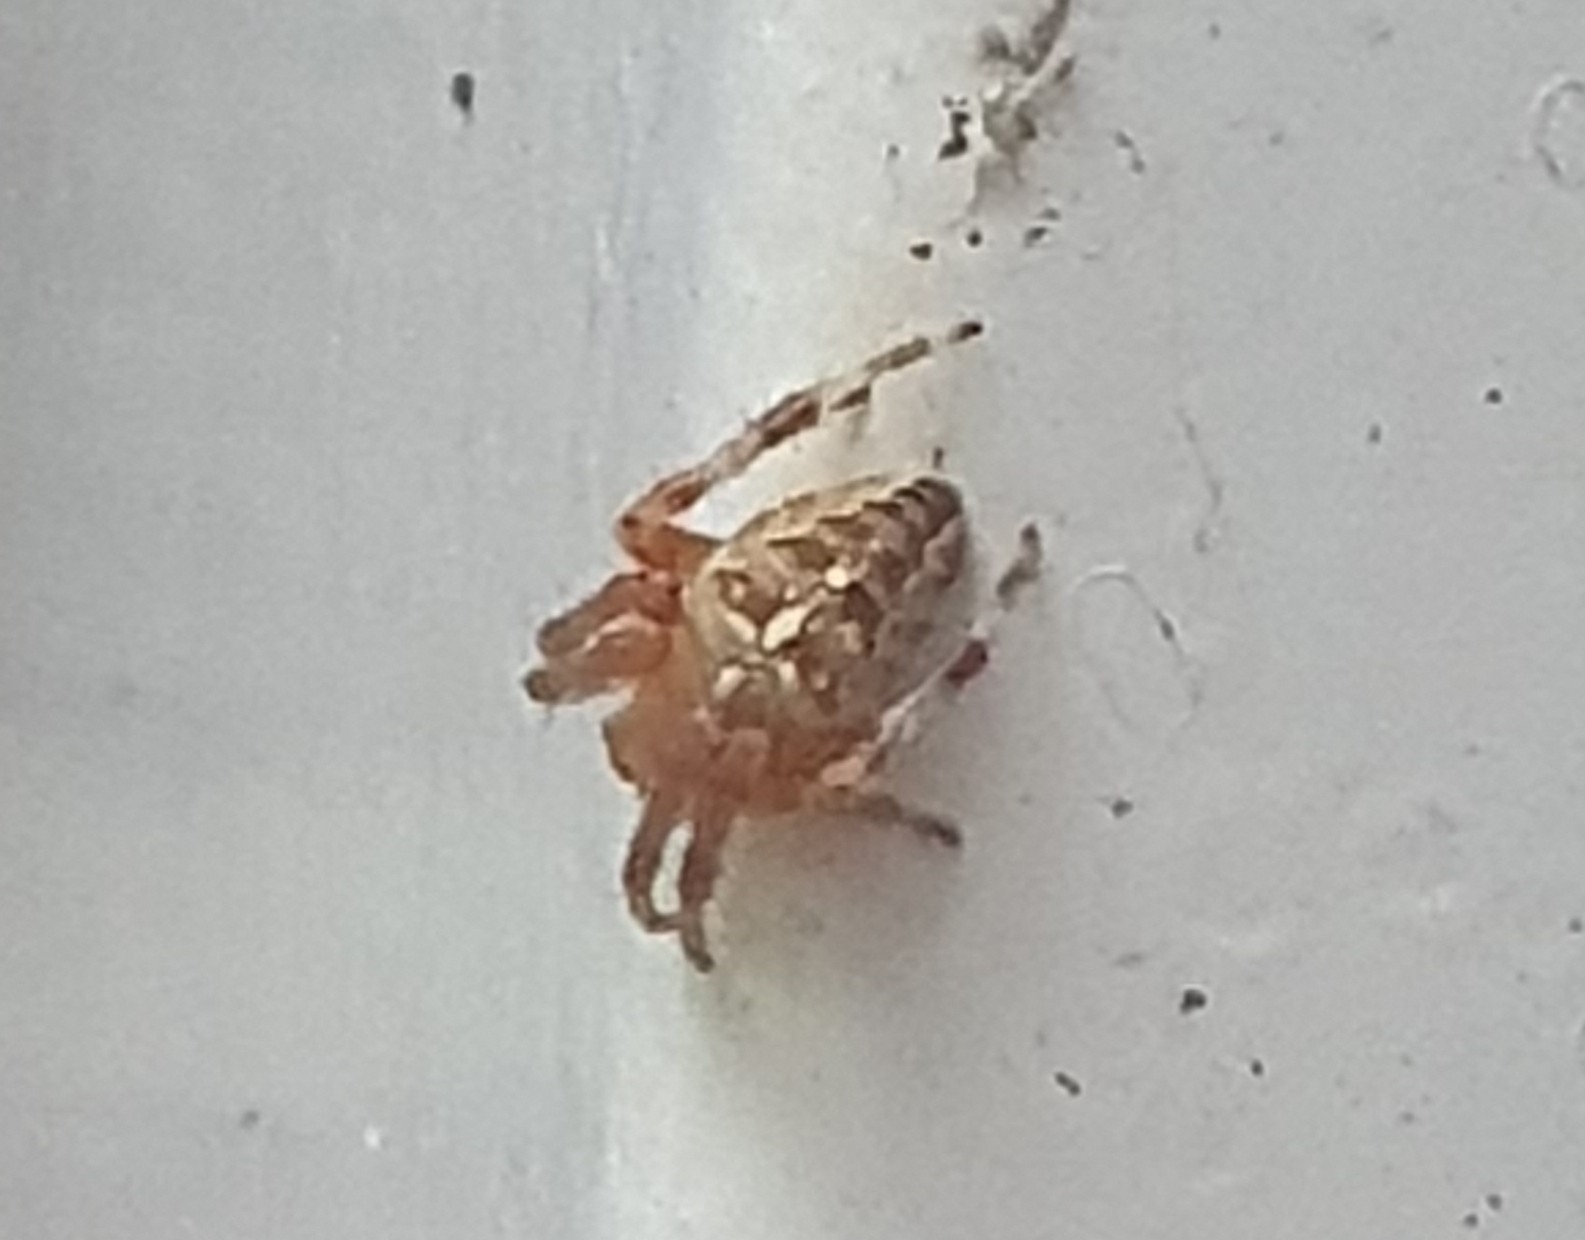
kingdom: Animalia
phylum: Arthropoda
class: Arachnida
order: Araneae
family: Araneidae
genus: Araneus
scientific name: Araneus diadematus
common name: Cross orbweaver
